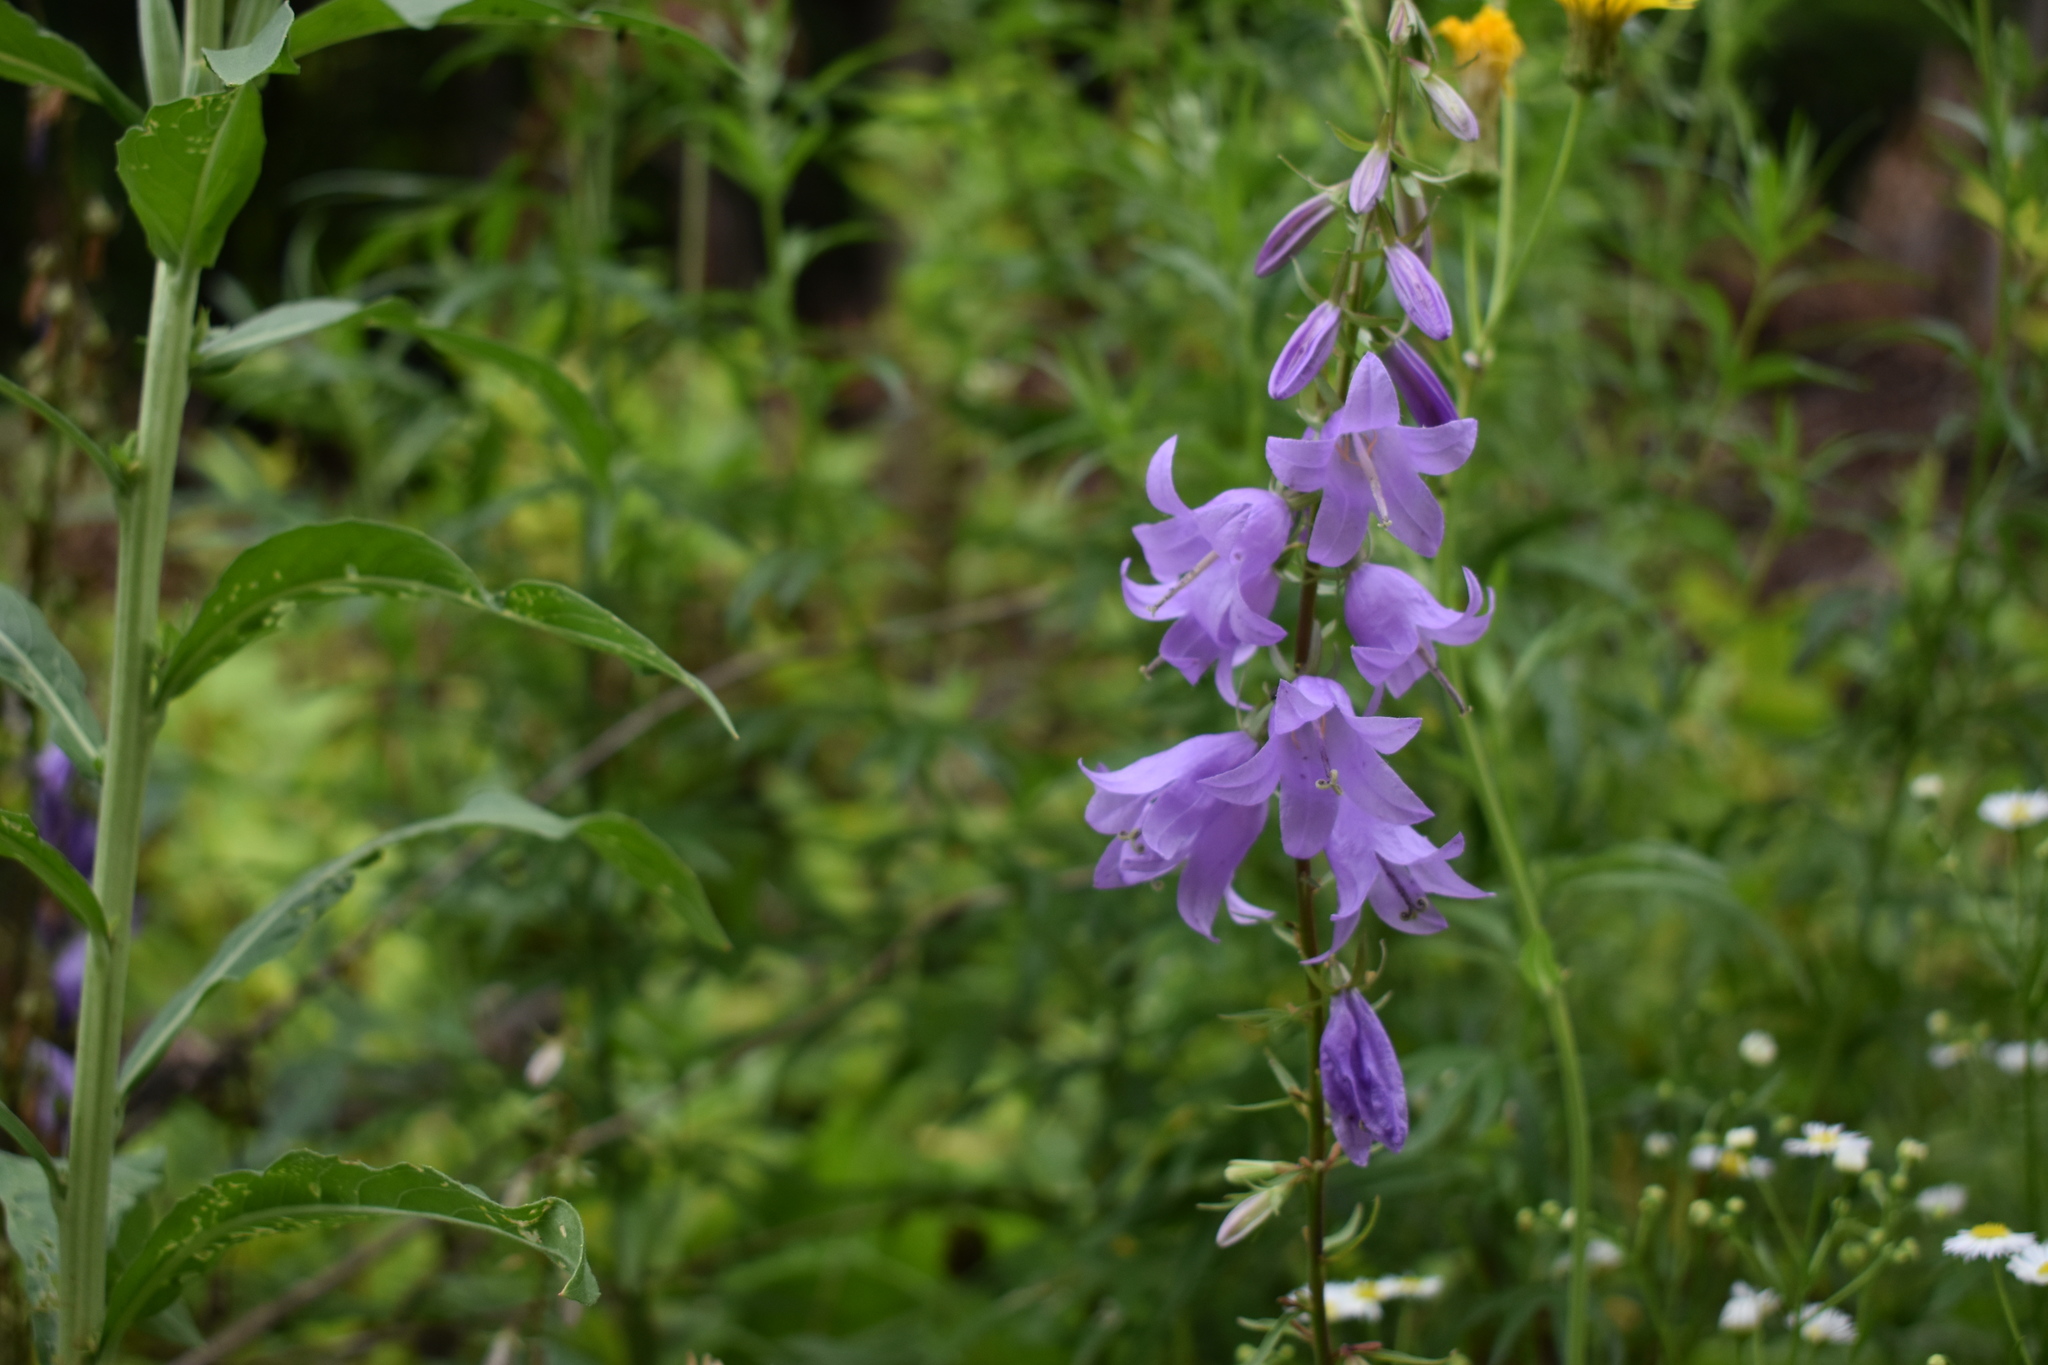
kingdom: Plantae
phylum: Tracheophyta
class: Magnoliopsida
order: Asterales
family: Campanulaceae
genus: Campanula
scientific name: Campanula rapunculoides
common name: Creeping bellflower
